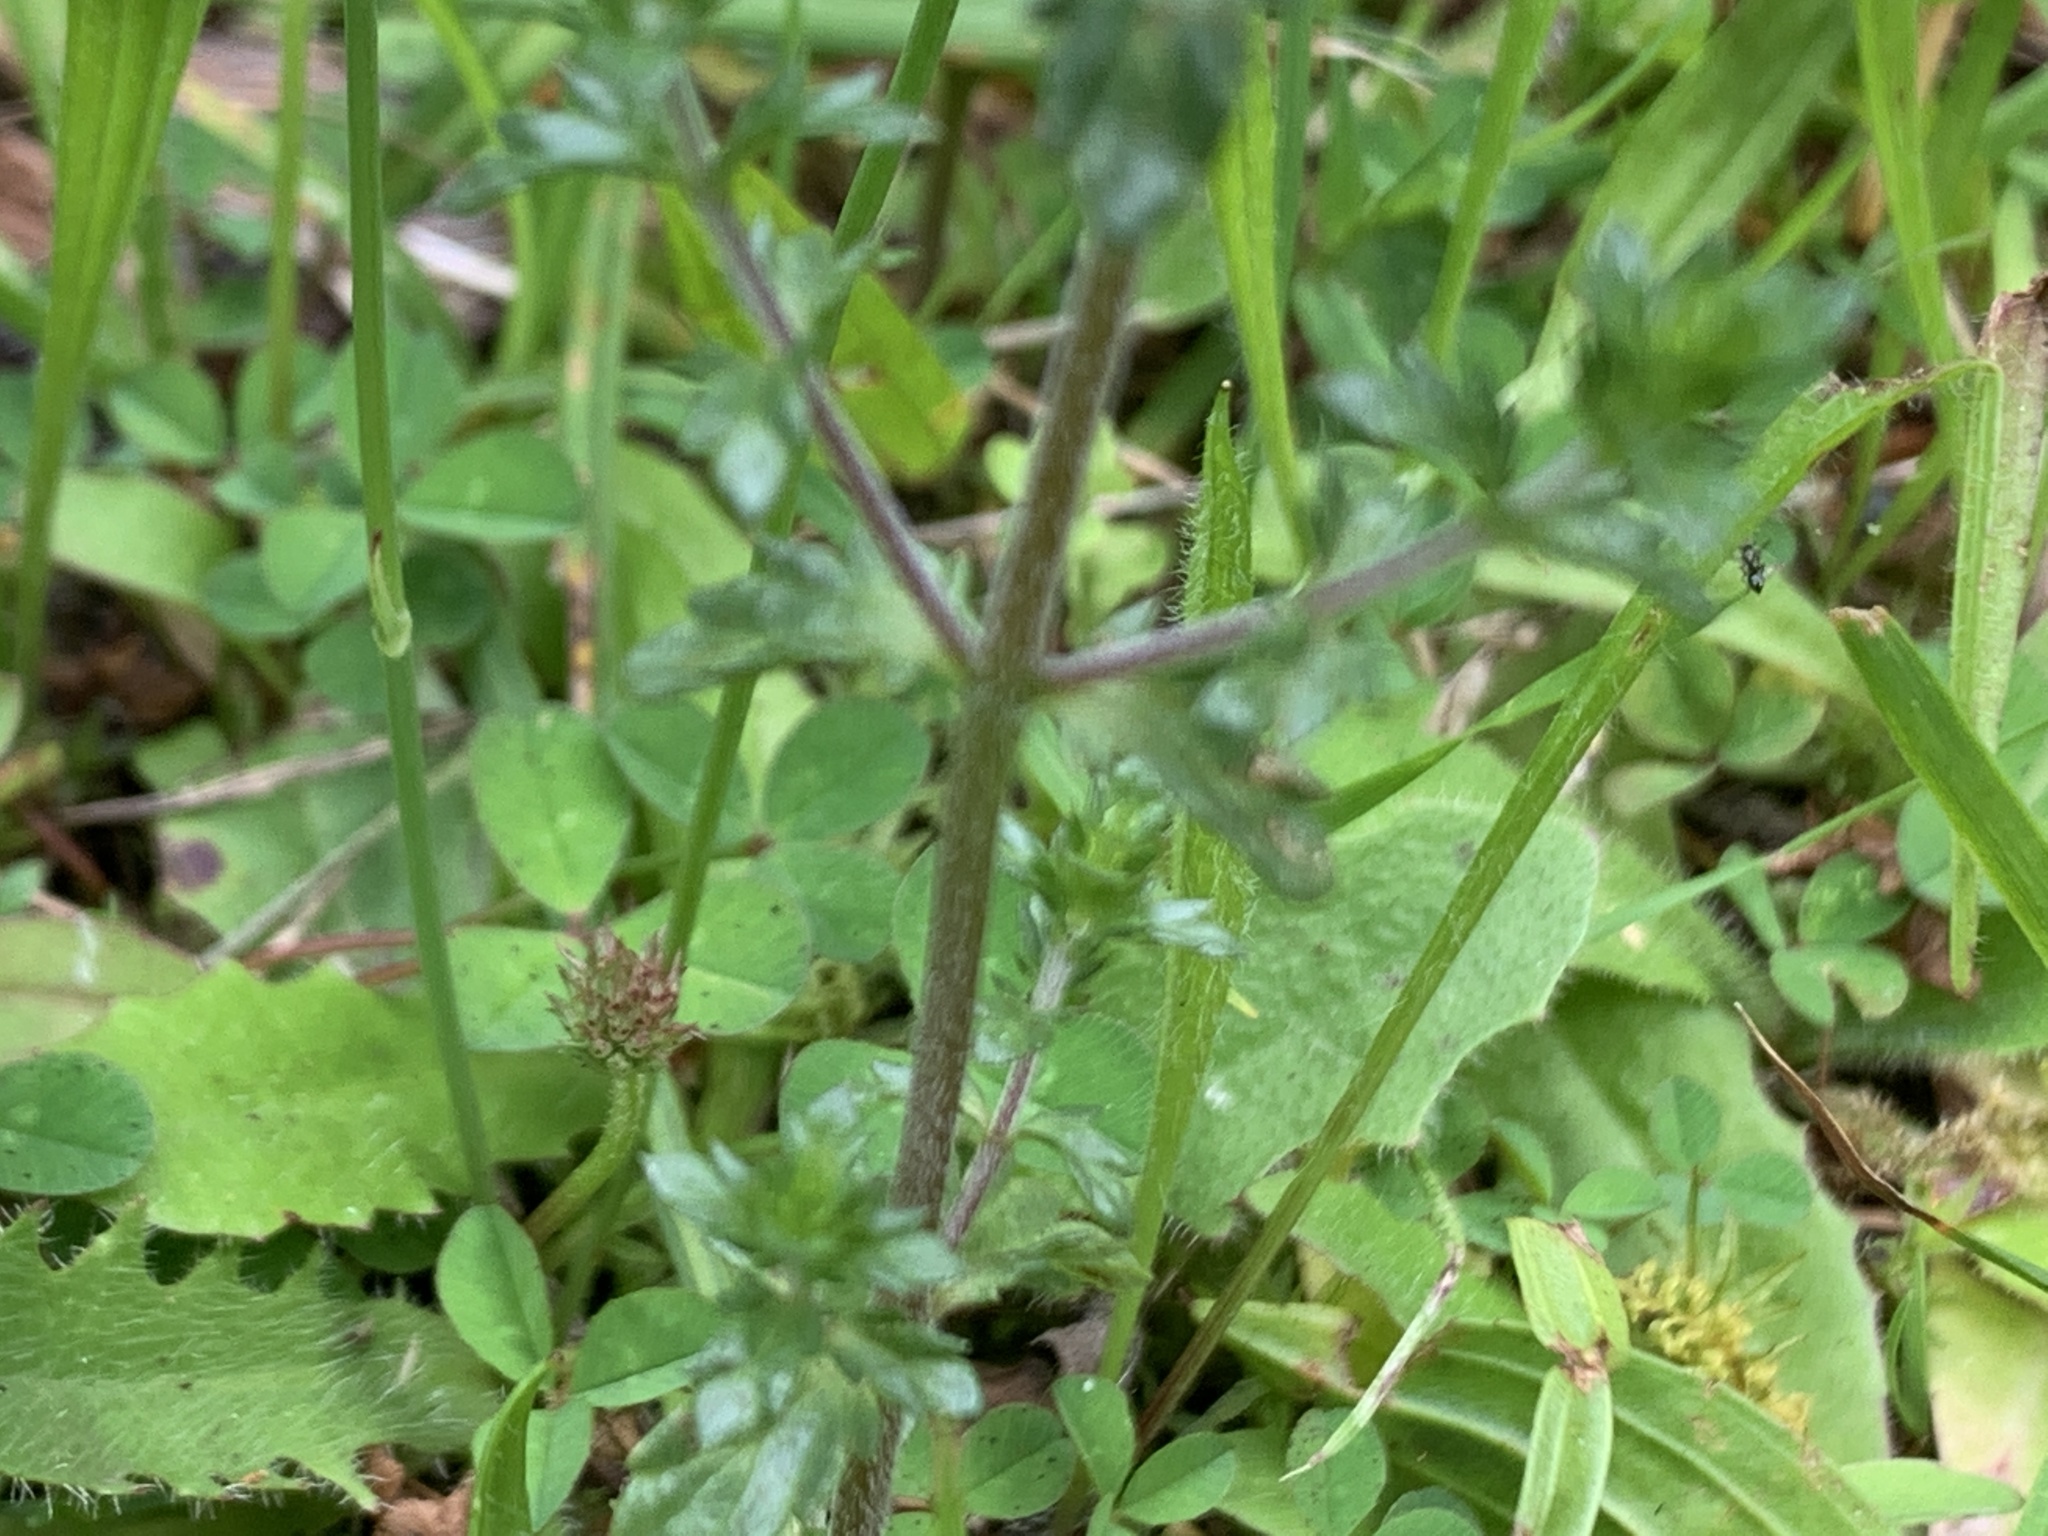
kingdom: Plantae
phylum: Tracheophyta
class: Magnoliopsida
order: Lamiales
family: Orobanchaceae
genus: Euphrasia
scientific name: Euphrasia nemorosa
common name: Common eyebright
